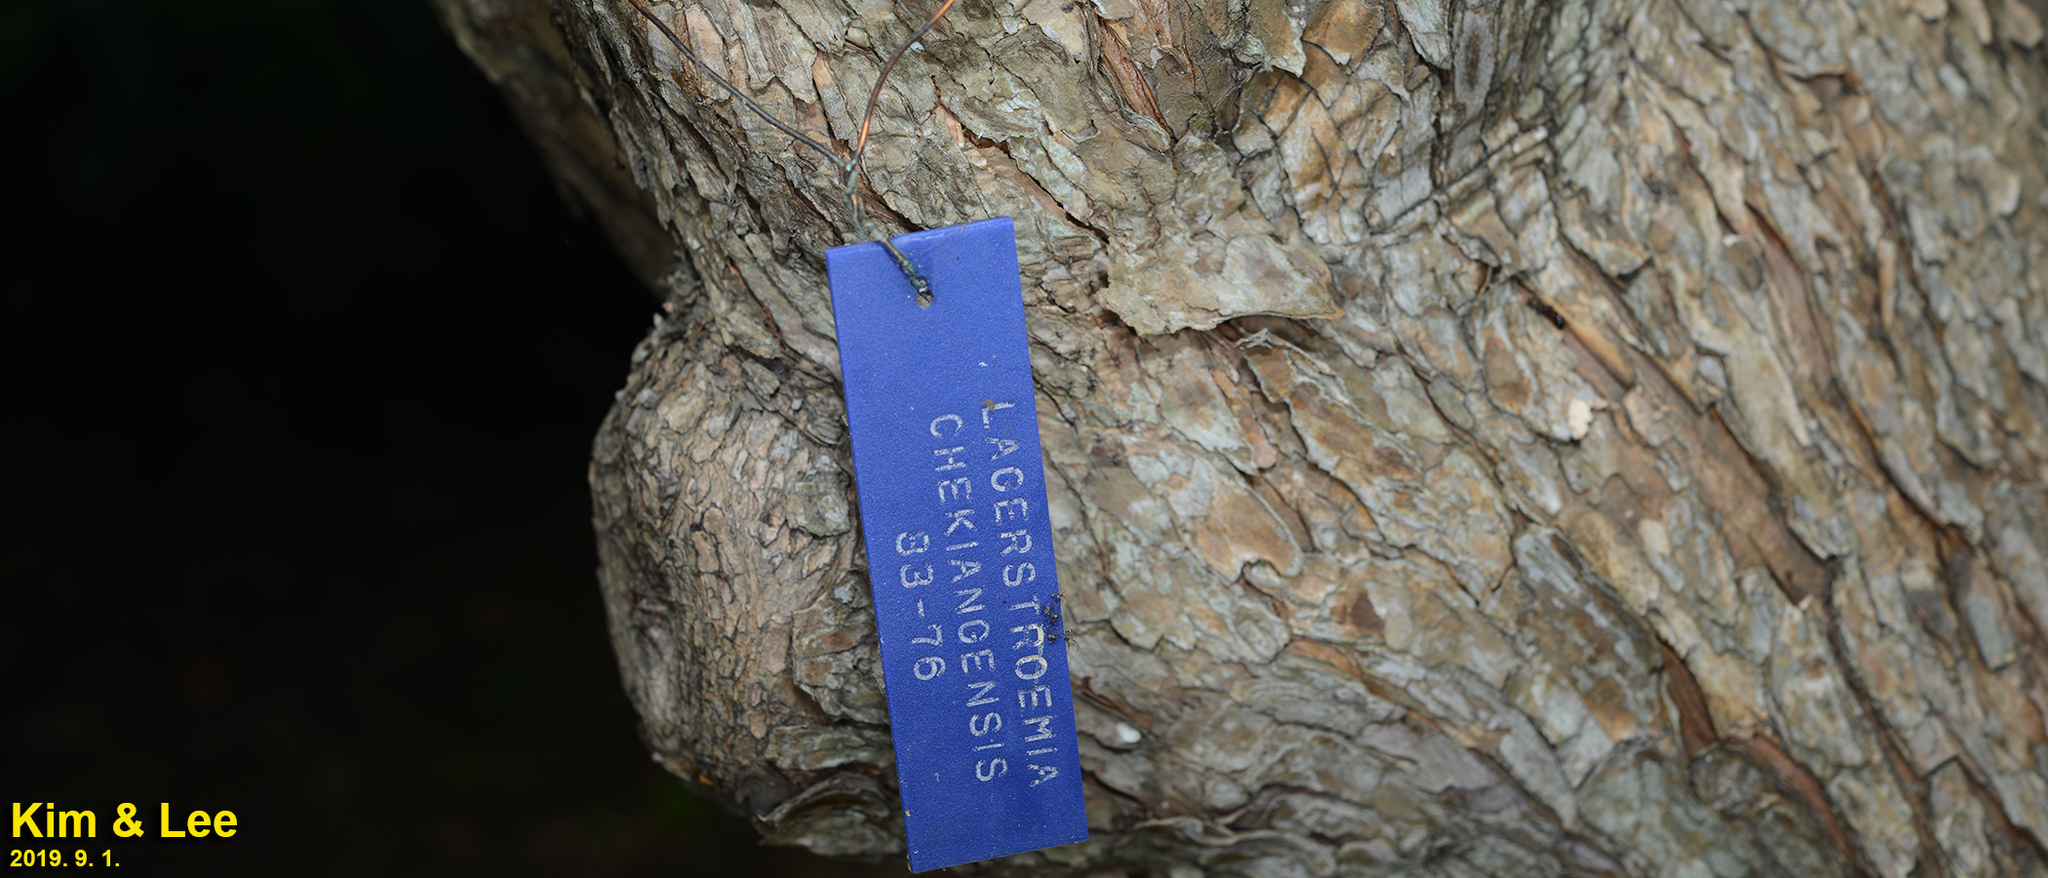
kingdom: Plantae
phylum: Tracheophyta
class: Magnoliopsida
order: Myrtales
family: Lythraceae
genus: Lagerstroemia
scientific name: Lagerstroemia limii
